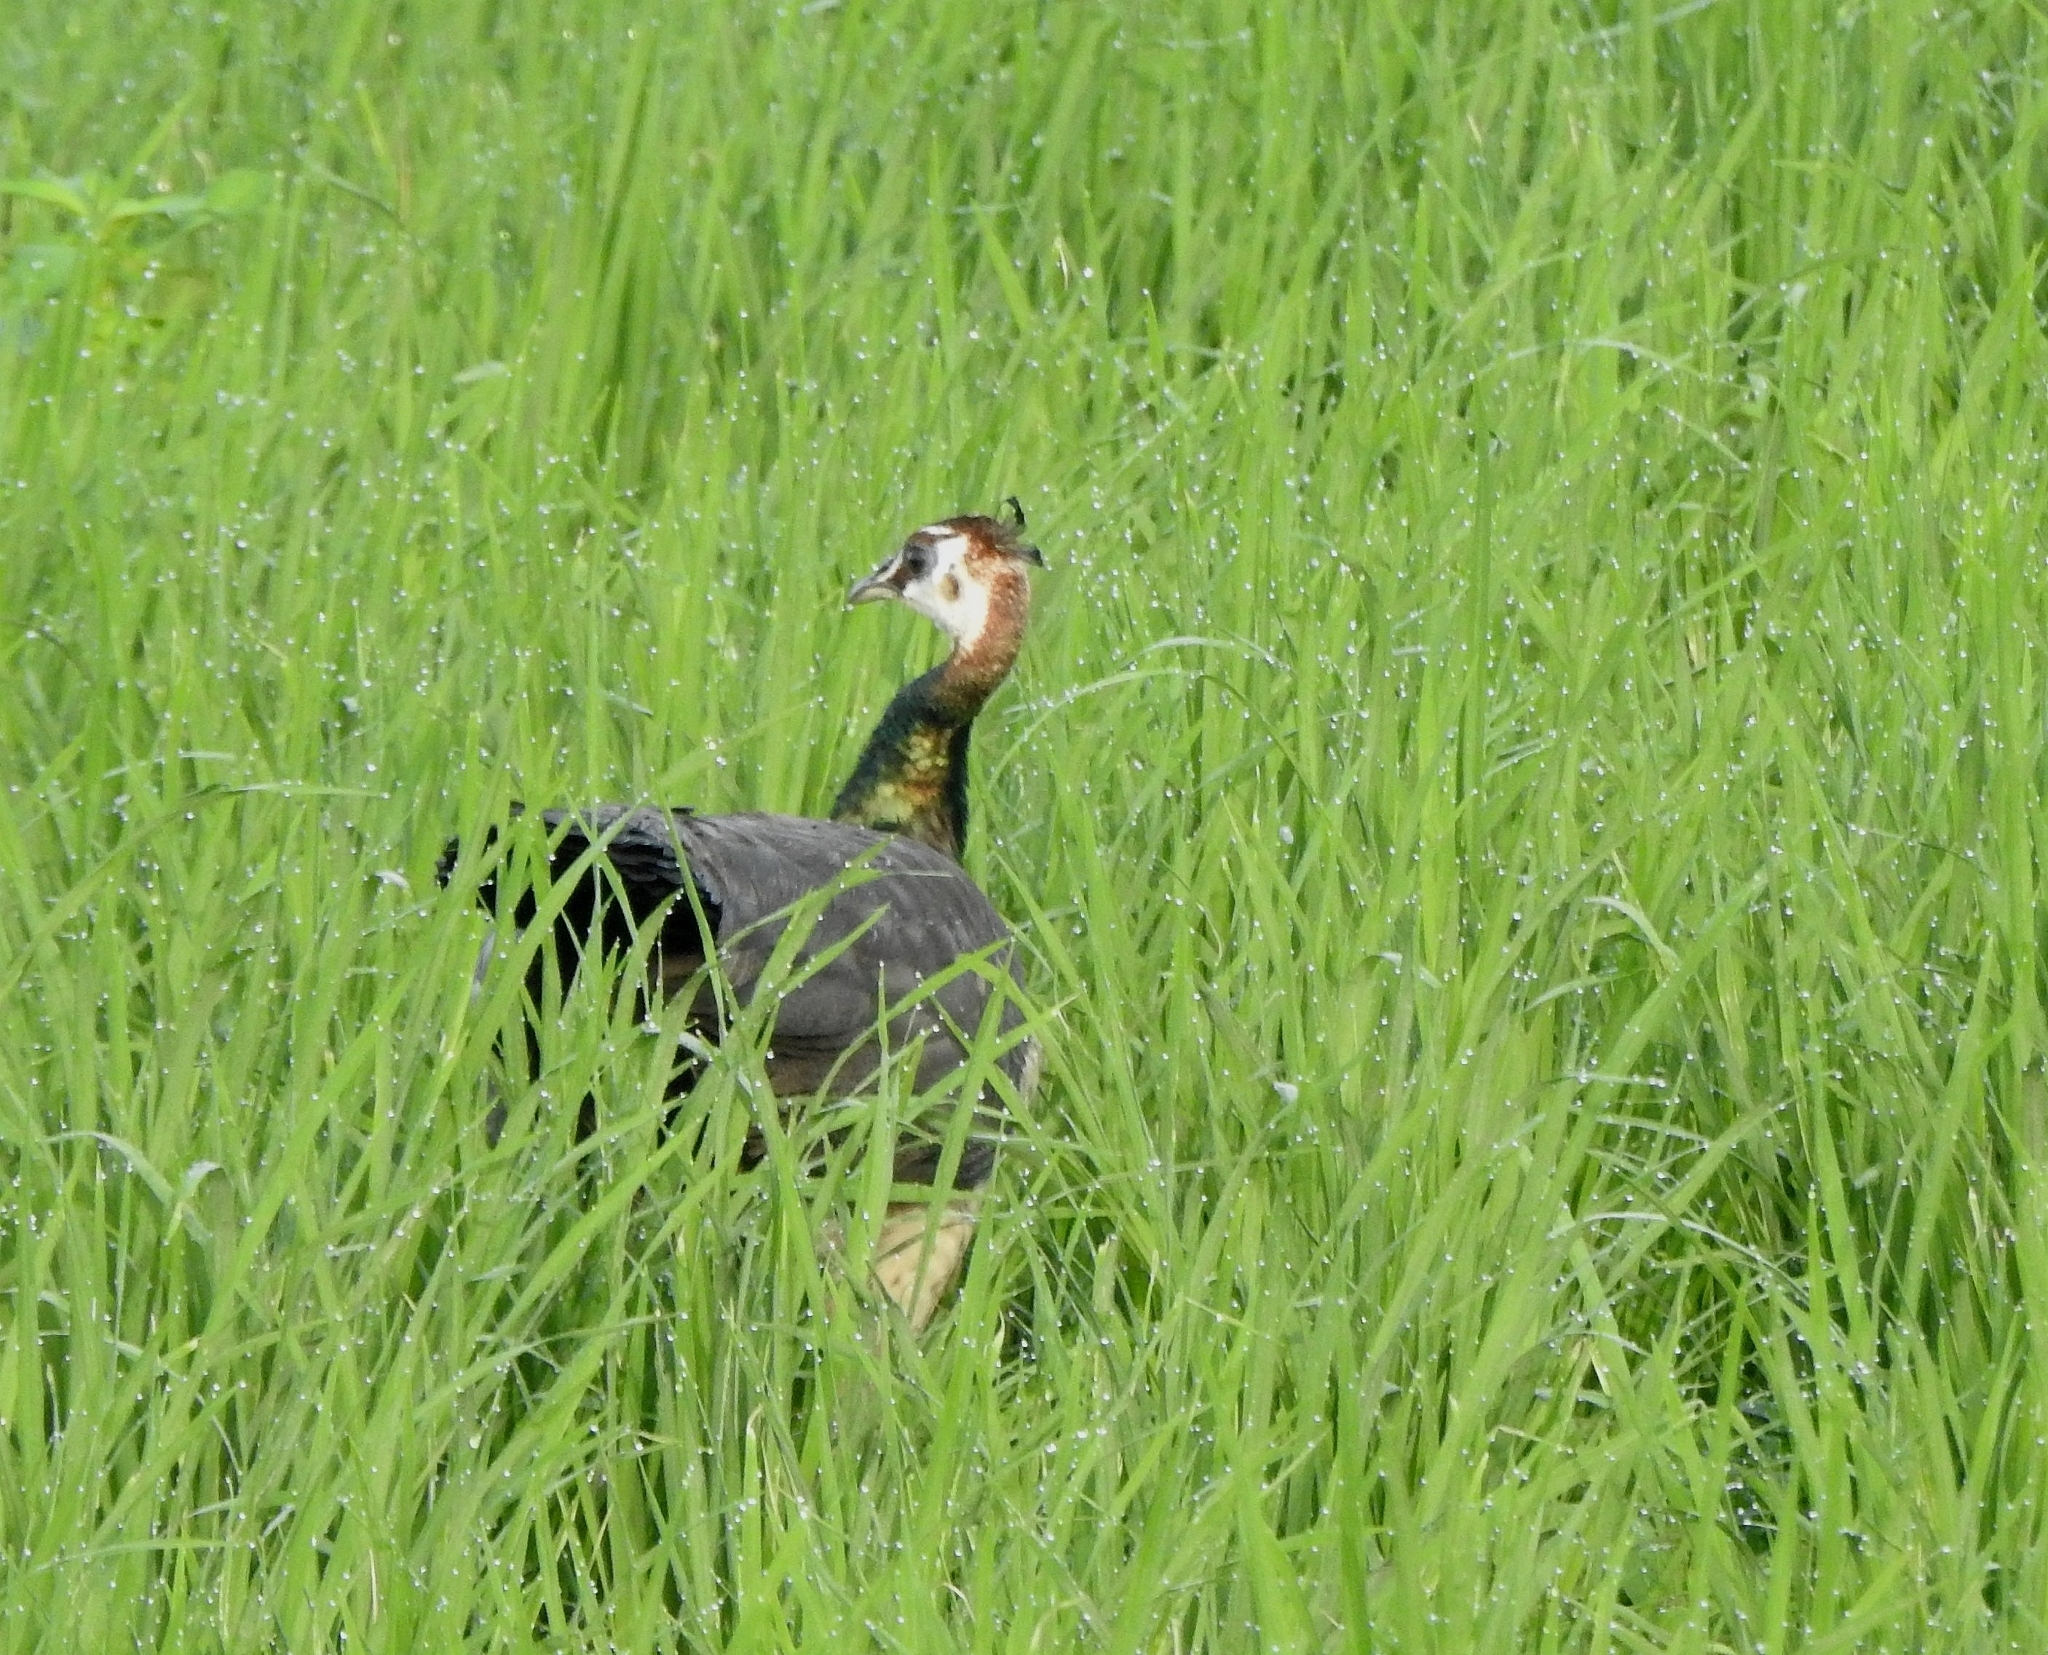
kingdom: Animalia
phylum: Chordata
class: Aves
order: Galliformes
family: Phasianidae
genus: Pavo
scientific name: Pavo cristatus
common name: Indian peafowl
